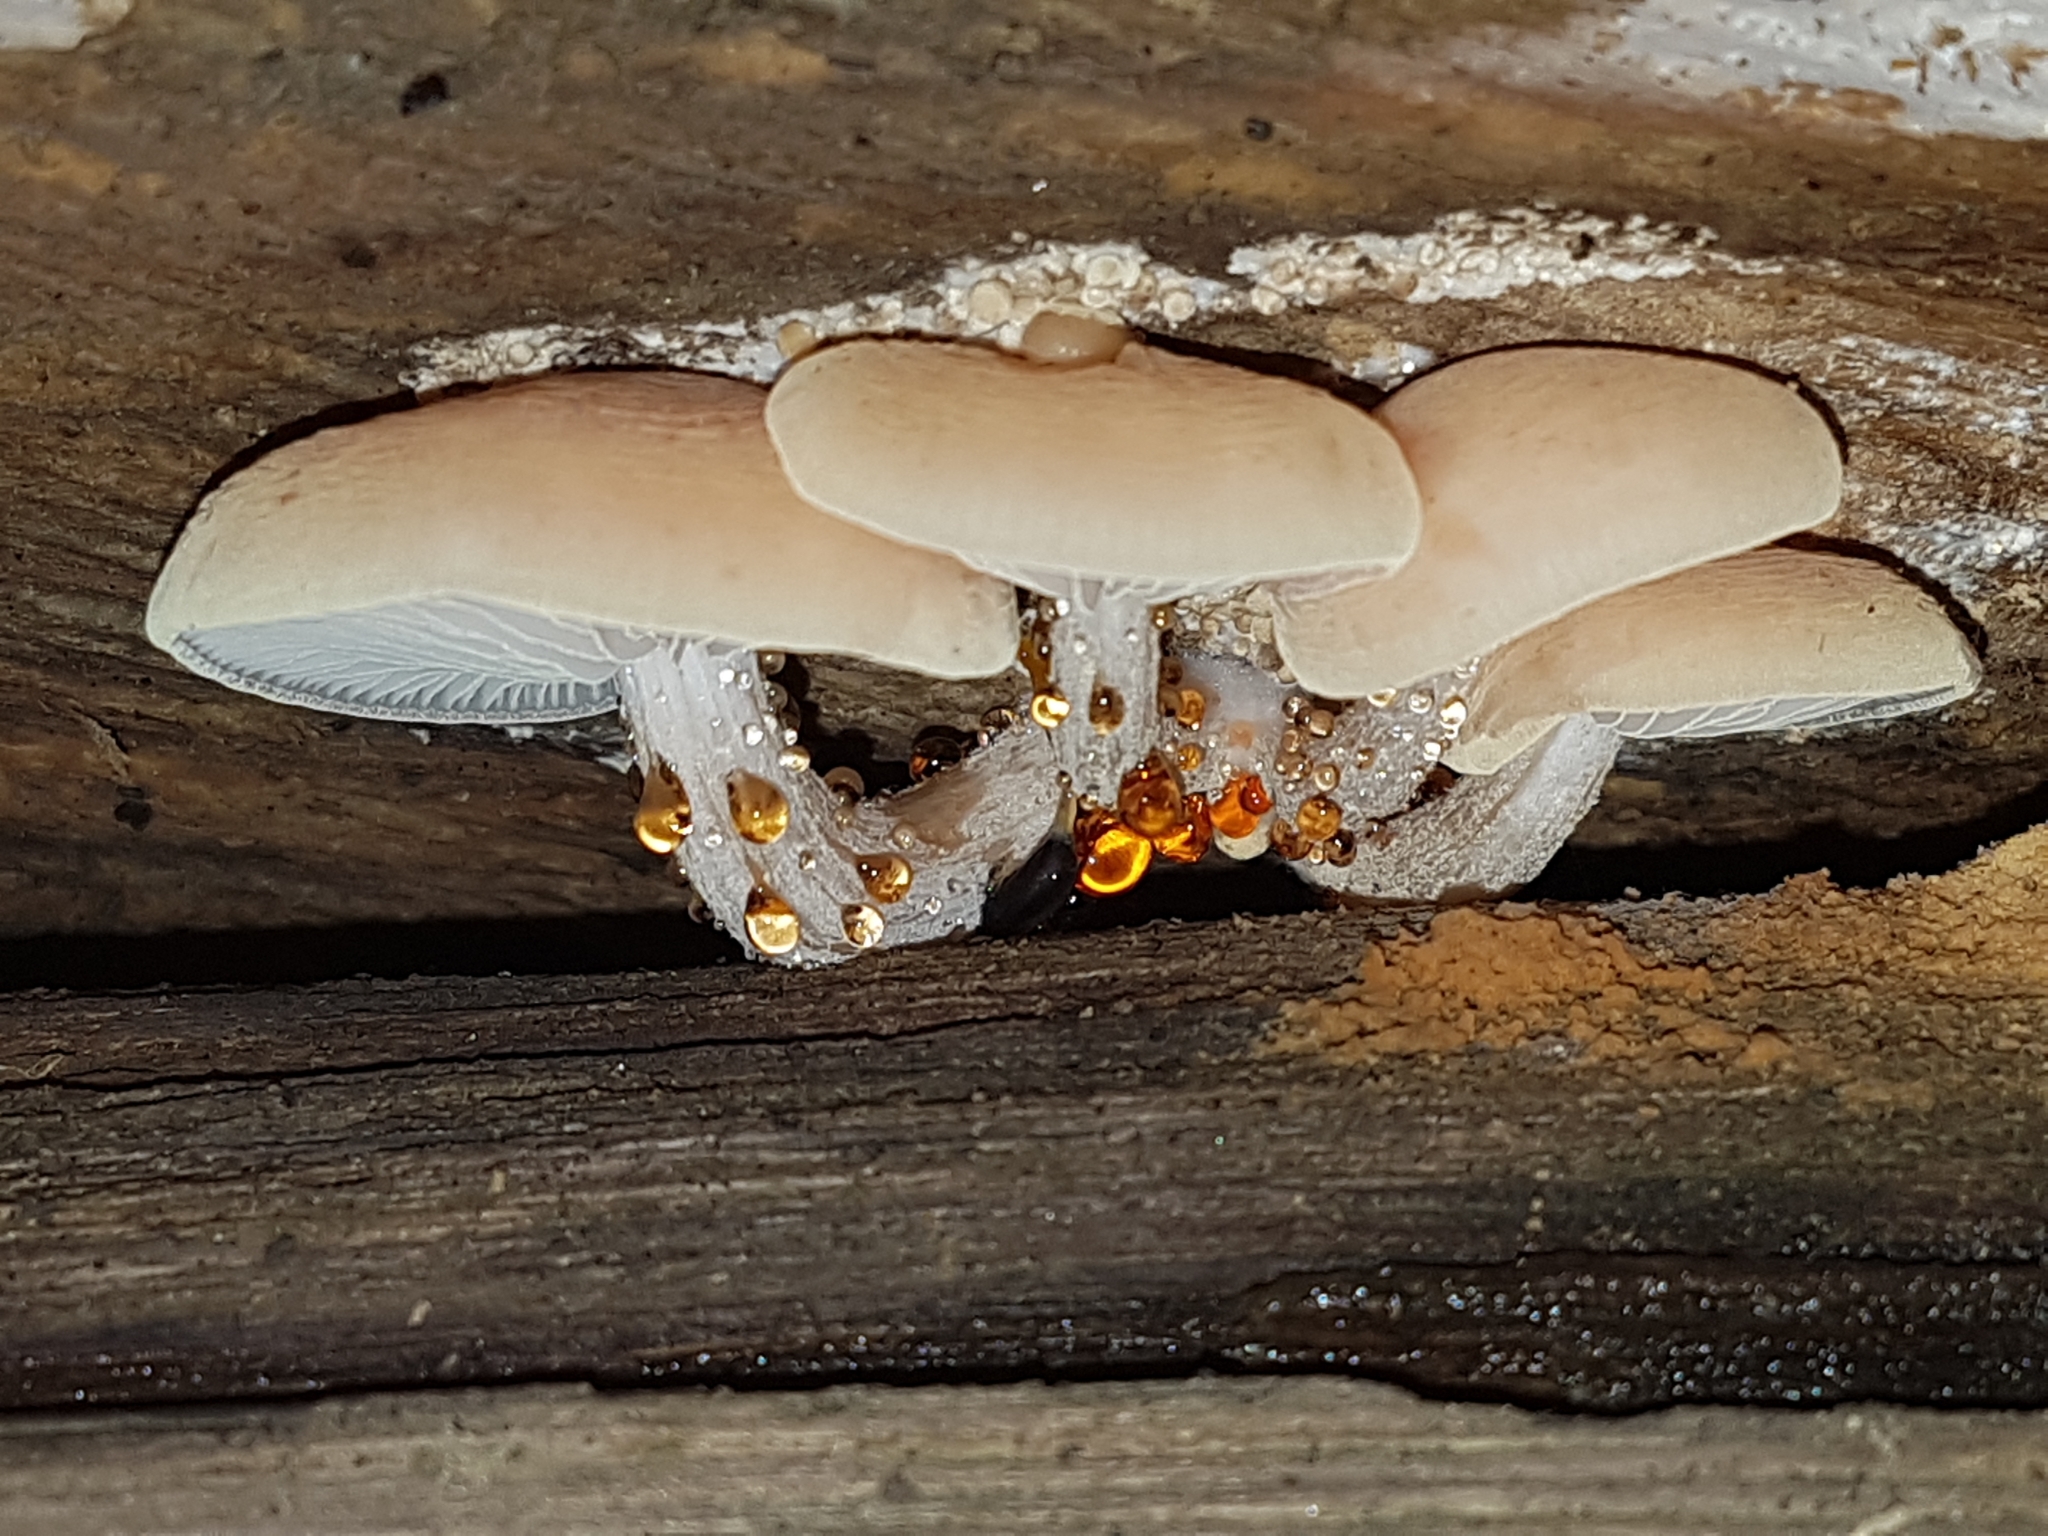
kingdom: Fungi
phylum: Basidiomycota
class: Agaricomycetes
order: Agaricales
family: Physalacriaceae
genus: Rhodotus
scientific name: Rhodotus palmatus
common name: Wrinkled peach
